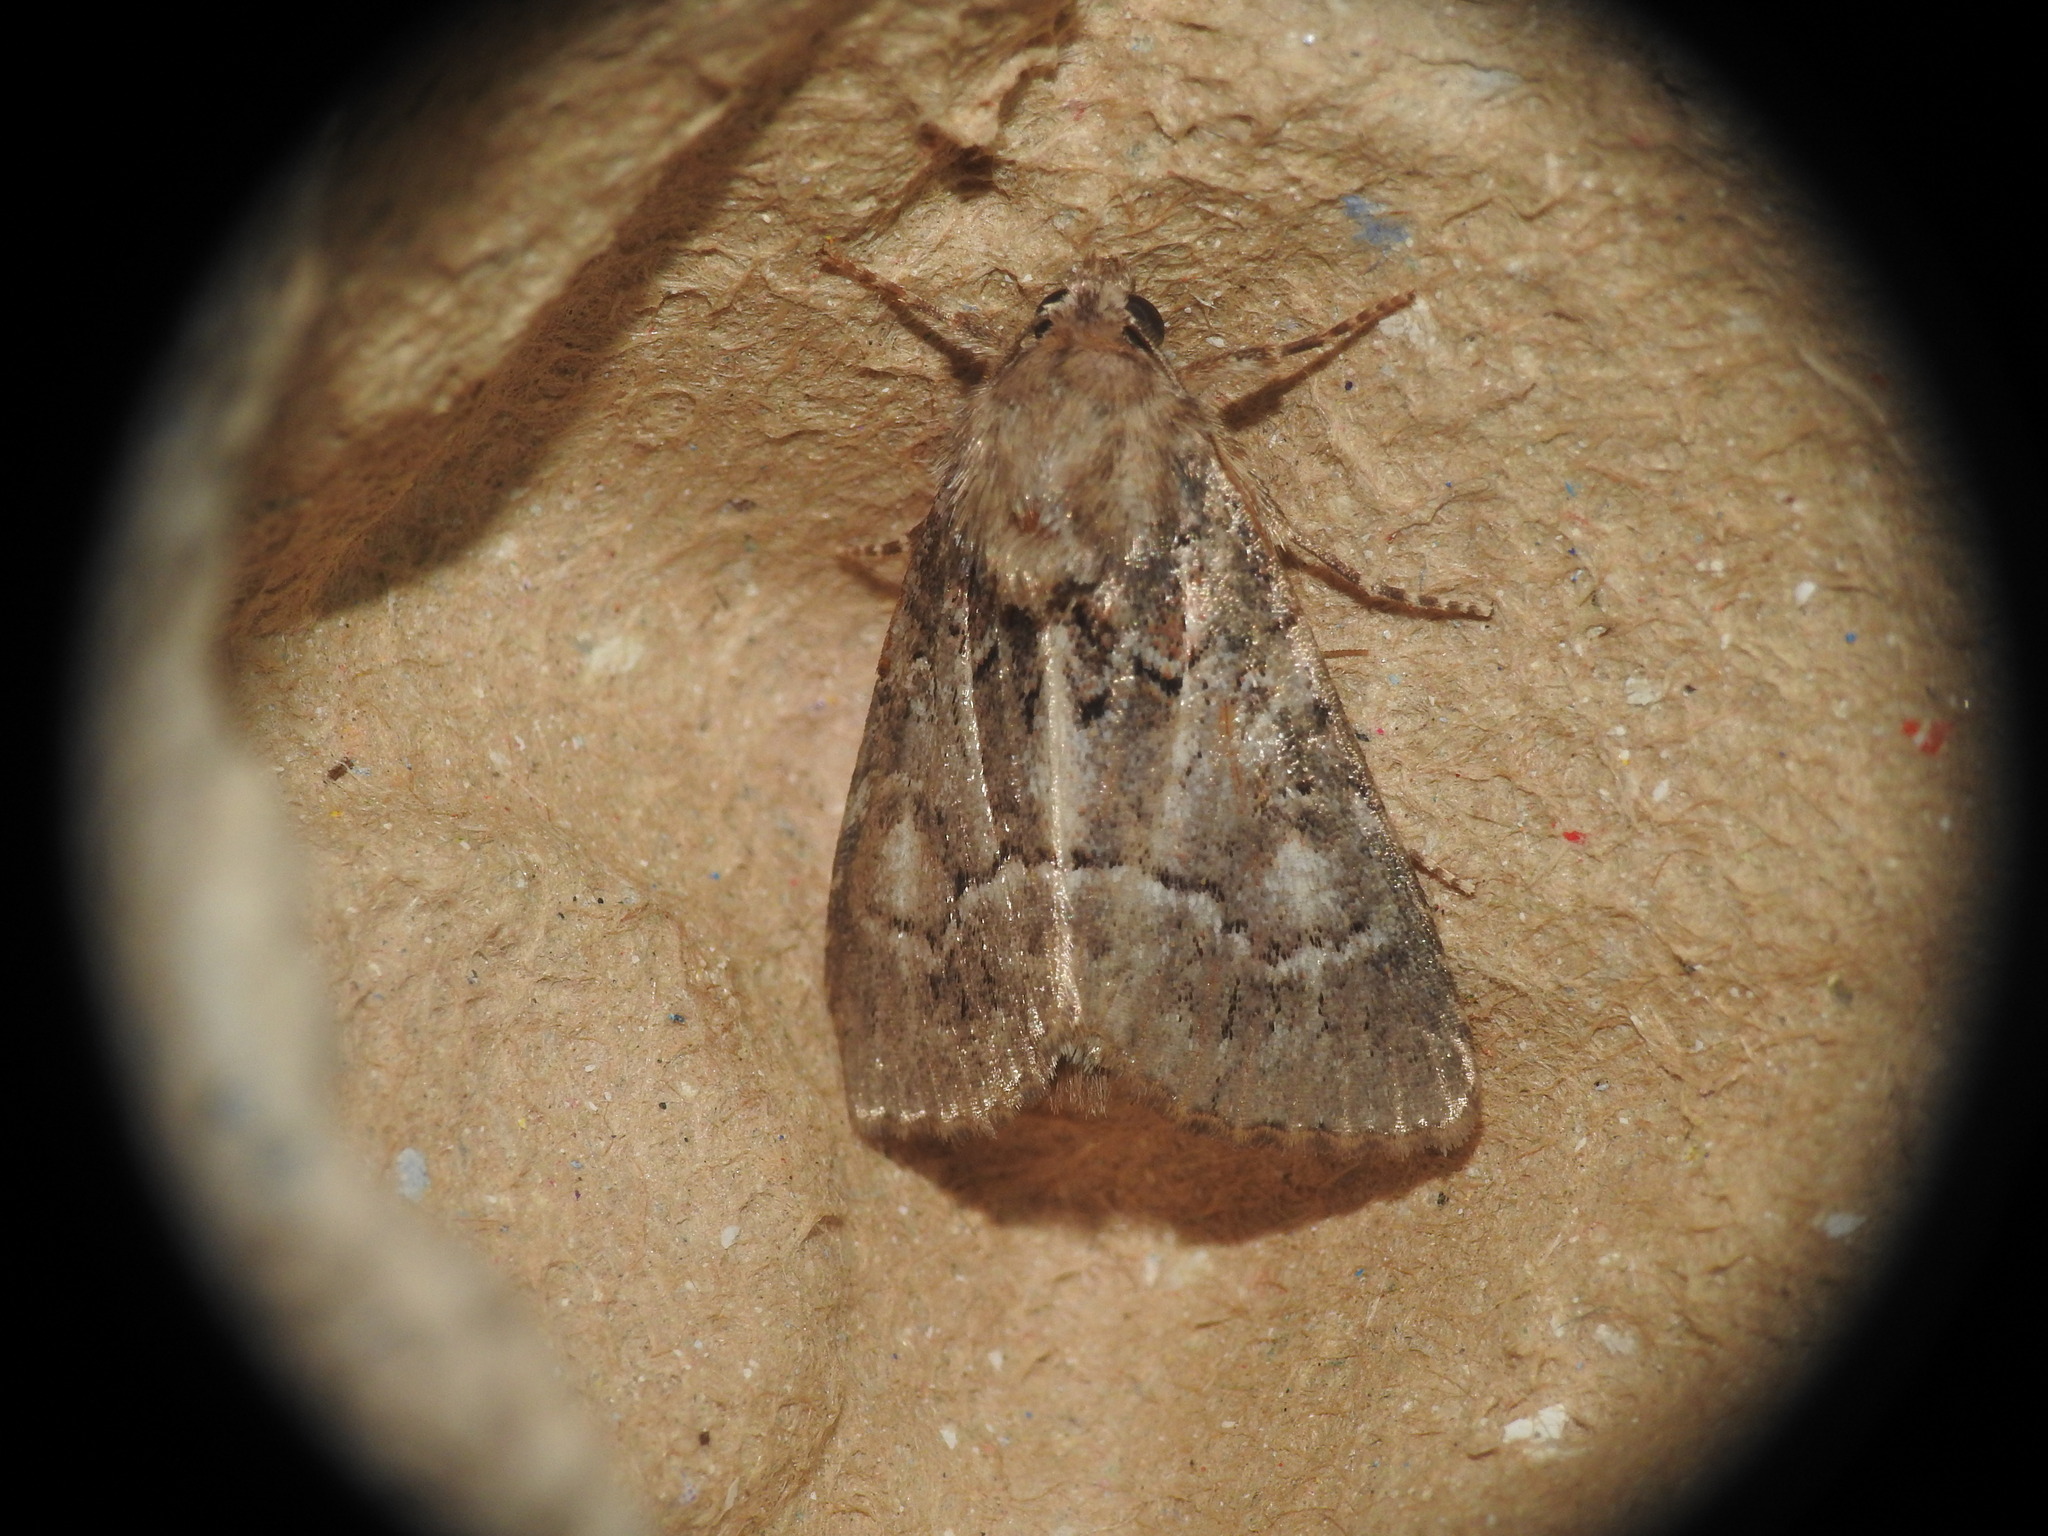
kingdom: Animalia
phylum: Arthropoda
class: Insecta
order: Lepidoptera
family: Noctuidae
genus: Thalpophila
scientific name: Thalpophila matura
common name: Straw underwing
